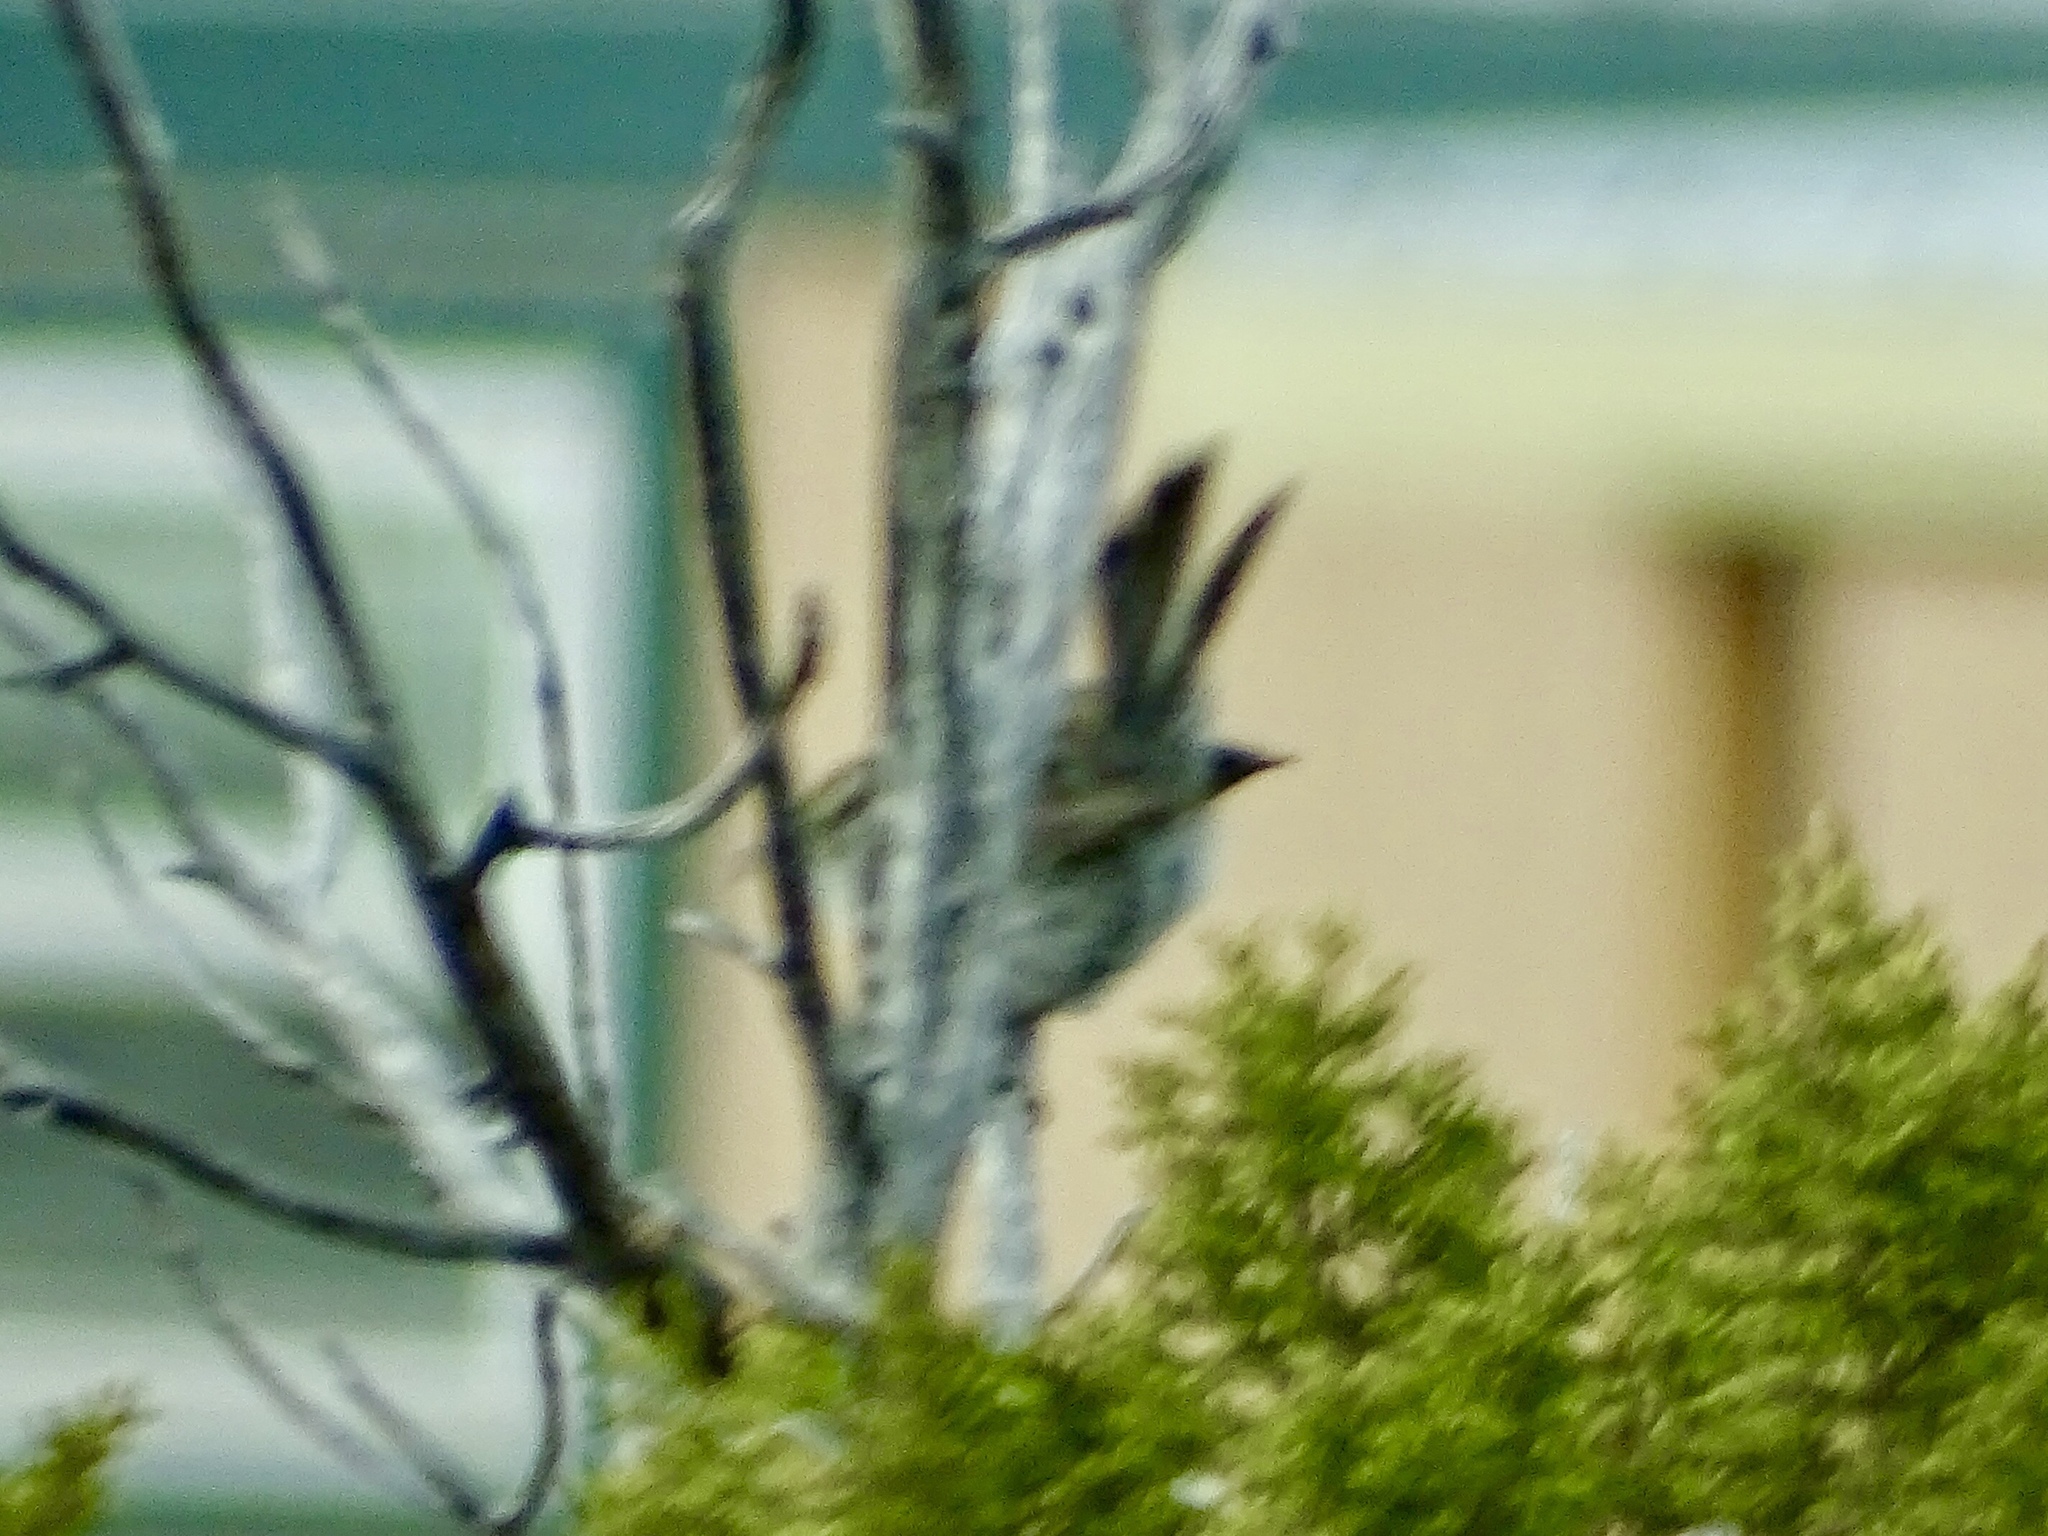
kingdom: Animalia
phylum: Chordata
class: Aves
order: Passeriformes
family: Troglodytidae
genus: Thryomanes
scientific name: Thryomanes bewickii
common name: Bewick's wren
